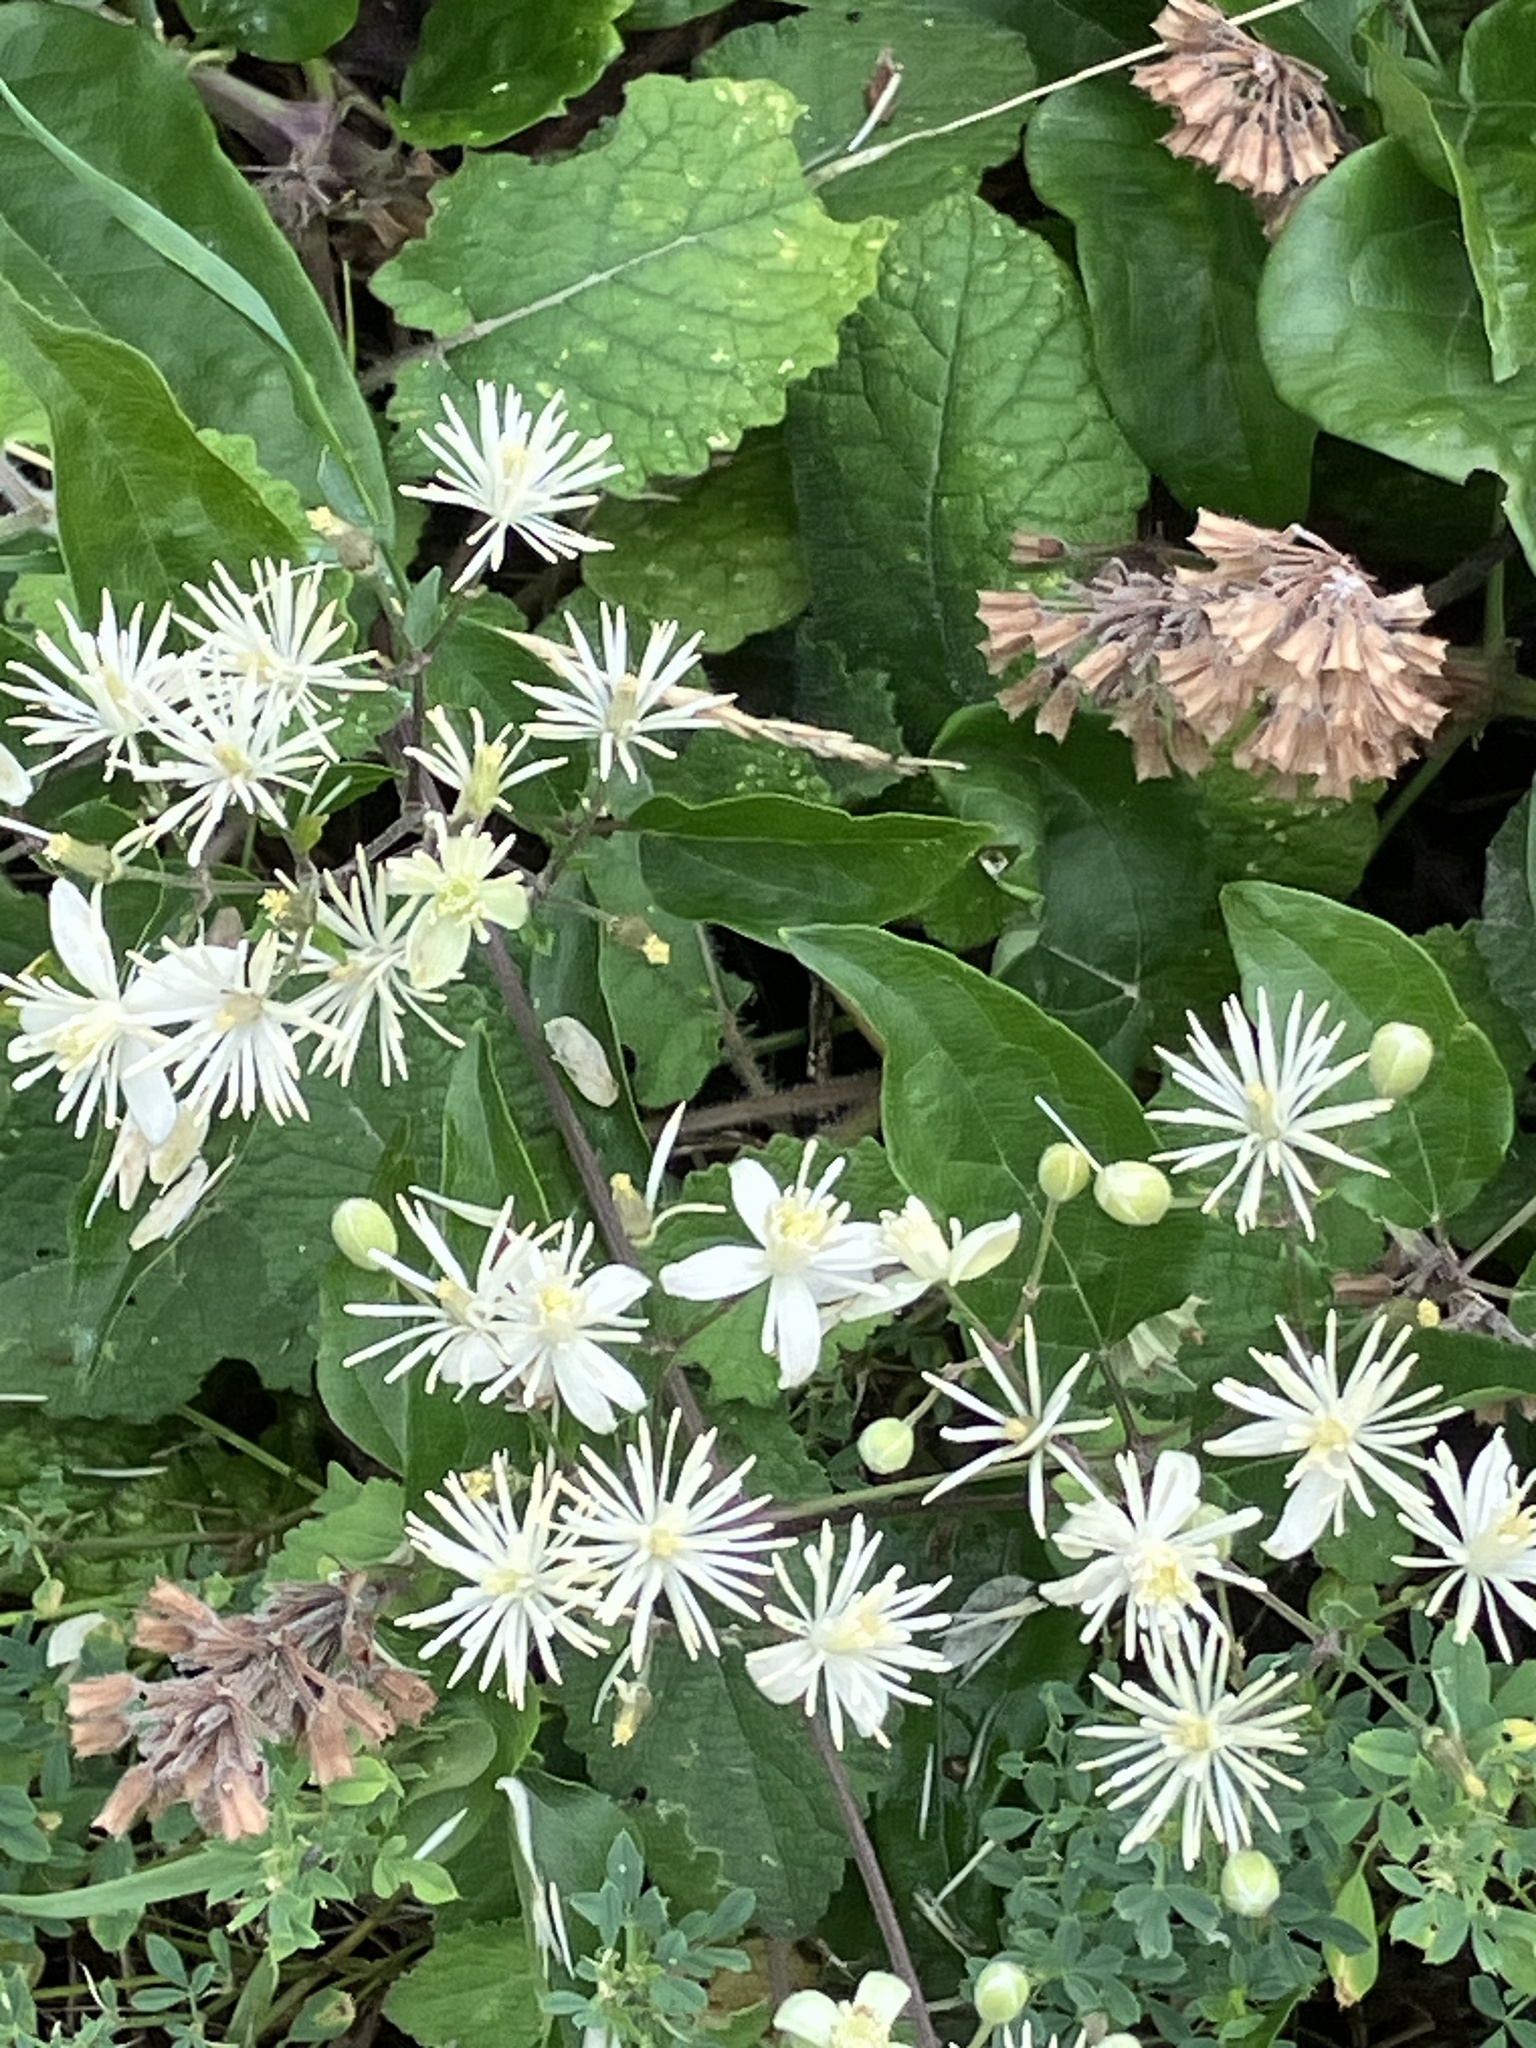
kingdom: Plantae
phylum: Tracheophyta
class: Magnoliopsida
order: Ranunculales
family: Ranunculaceae
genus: Clematis
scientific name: Clematis vitalba
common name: Evergreen clematis
